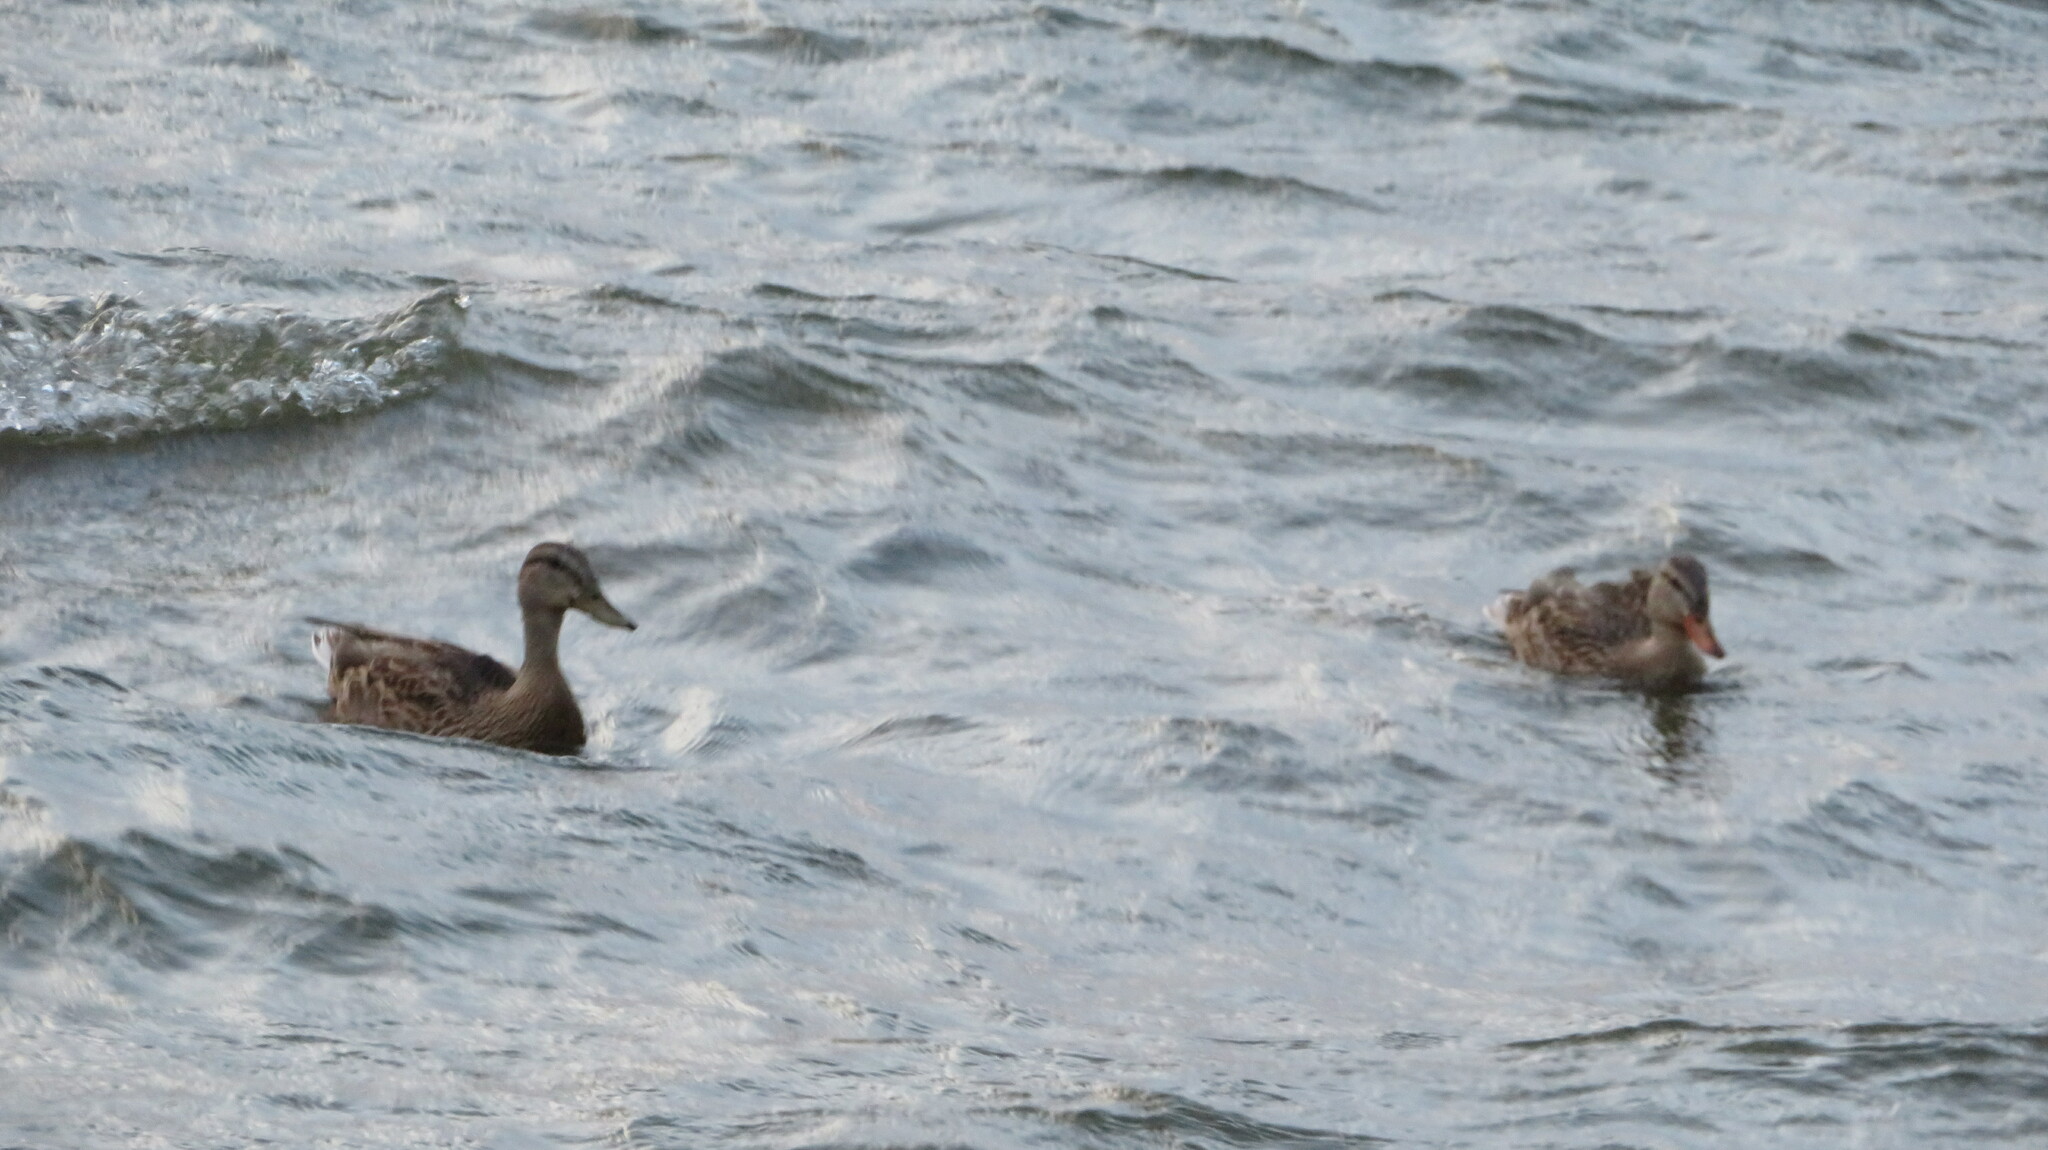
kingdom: Animalia
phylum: Chordata
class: Aves
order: Anseriformes
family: Anatidae
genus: Anas
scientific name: Anas platyrhynchos
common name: Mallard
